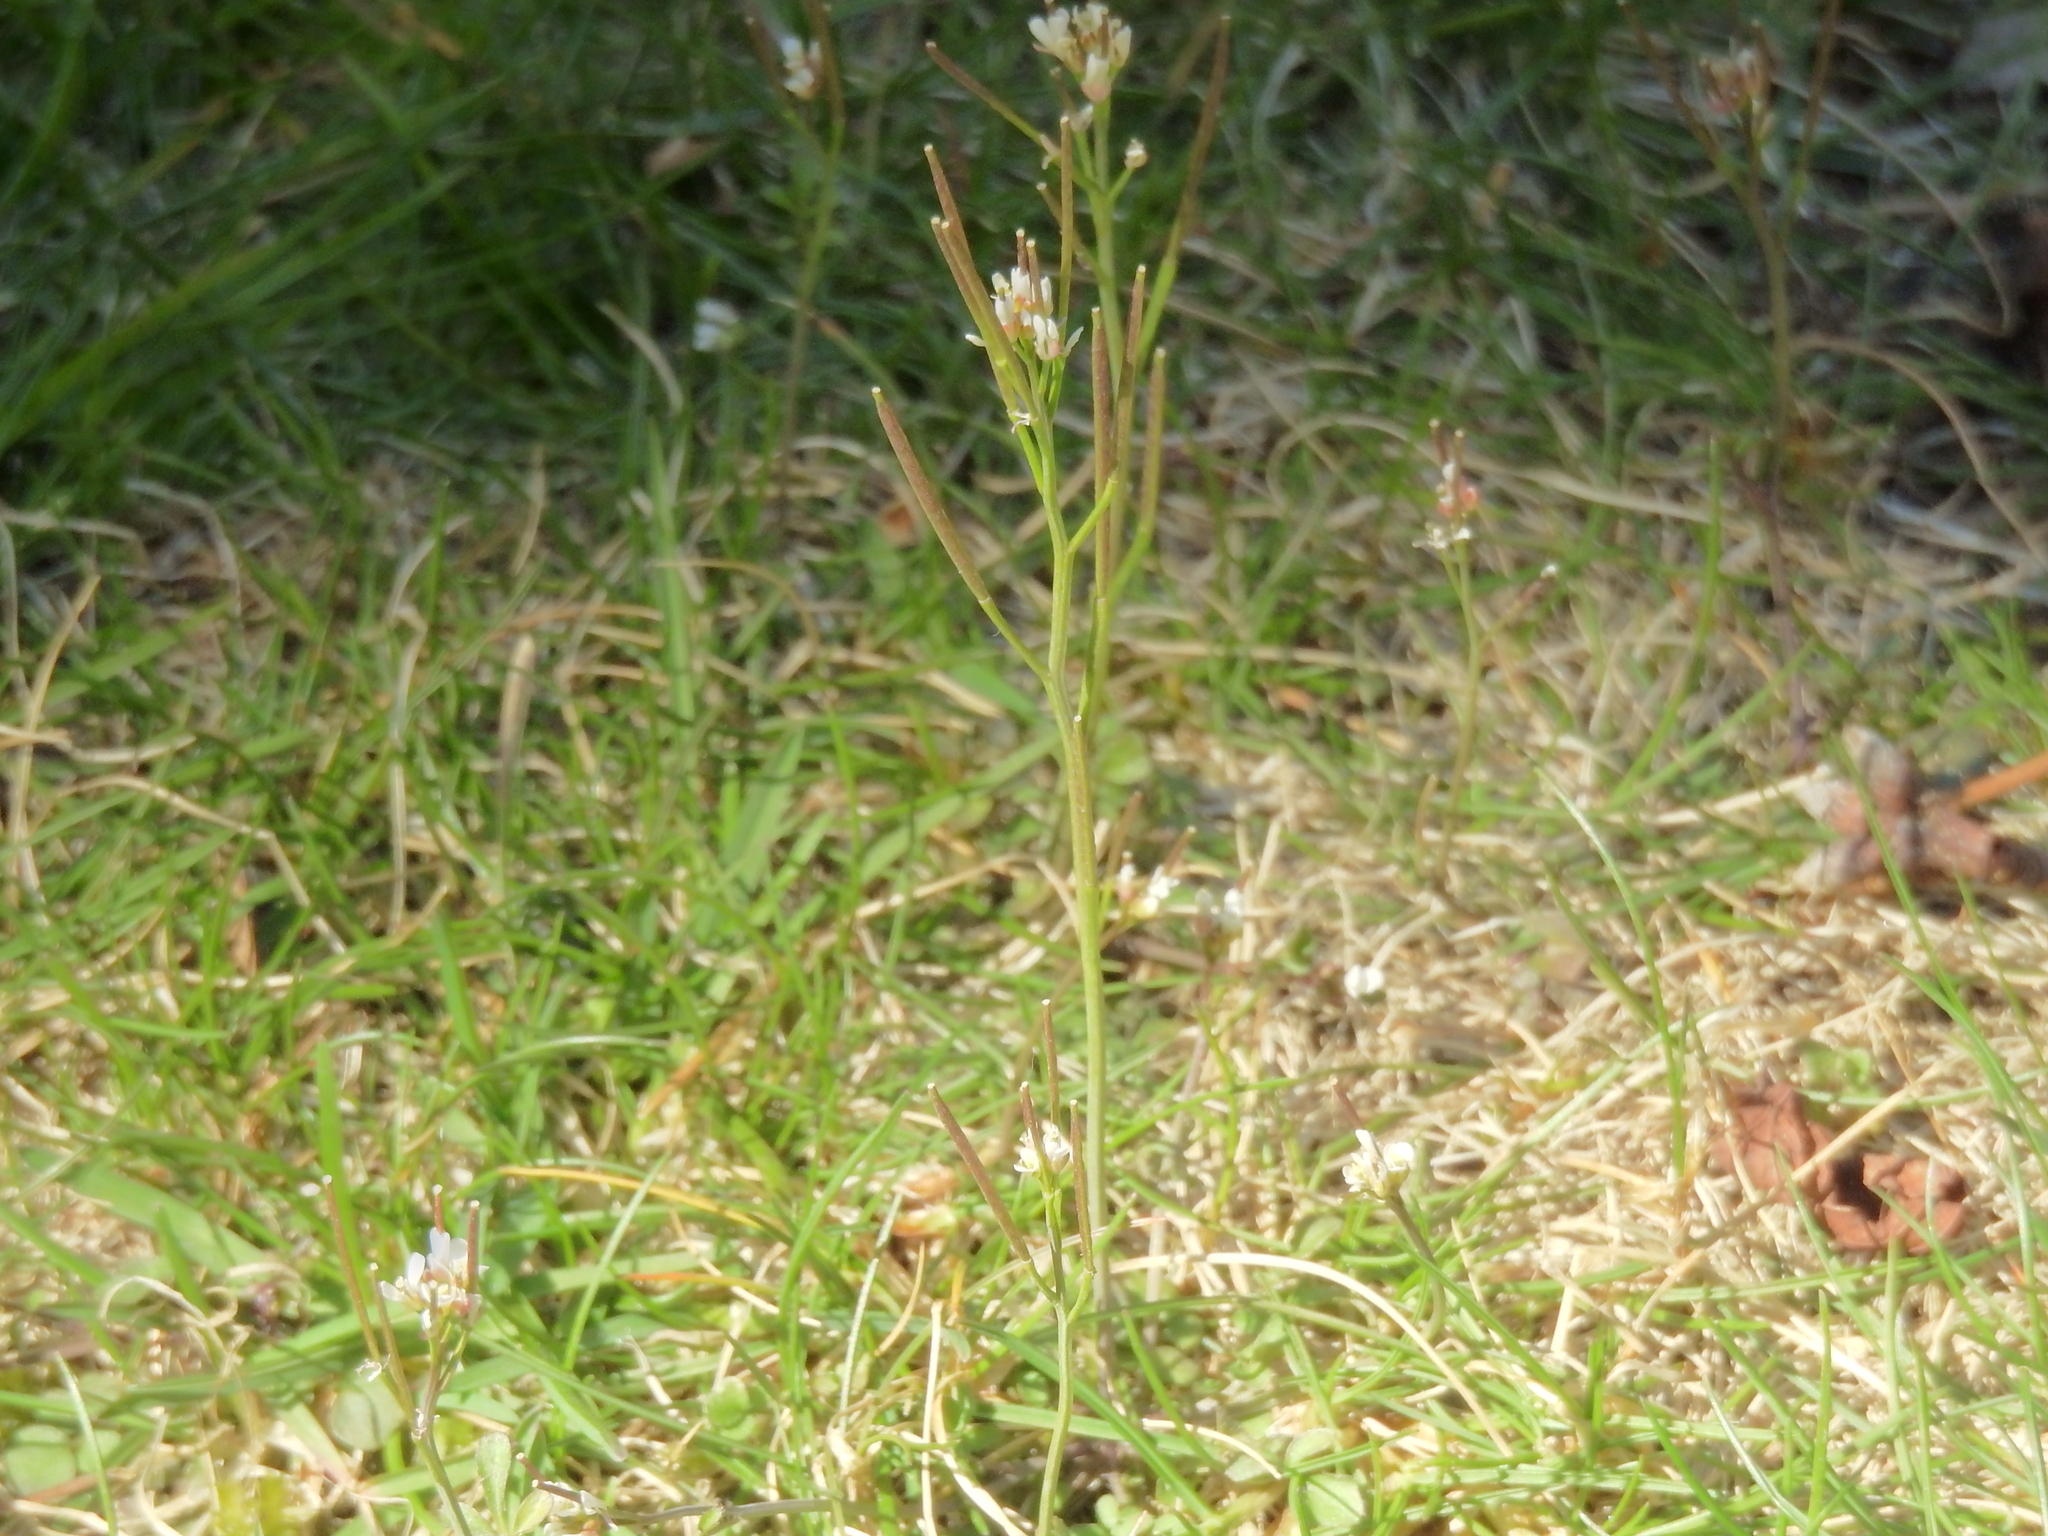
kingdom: Plantae
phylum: Tracheophyta
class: Magnoliopsida
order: Brassicales
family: Brassicaceae
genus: Cardamine
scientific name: Cardamine hirsuta
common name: Hairy bittercress
